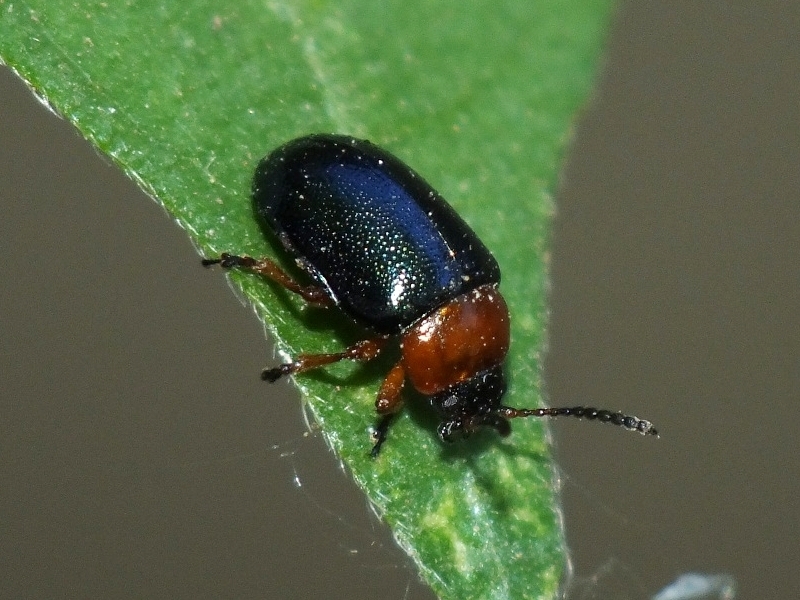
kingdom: Animalia
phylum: Arthropoda
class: Insecta
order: Coleoptera
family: Chrysomelidae
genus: Gastrophysa
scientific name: Gastrophysa polygoni
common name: Knotweed leaf beetle
